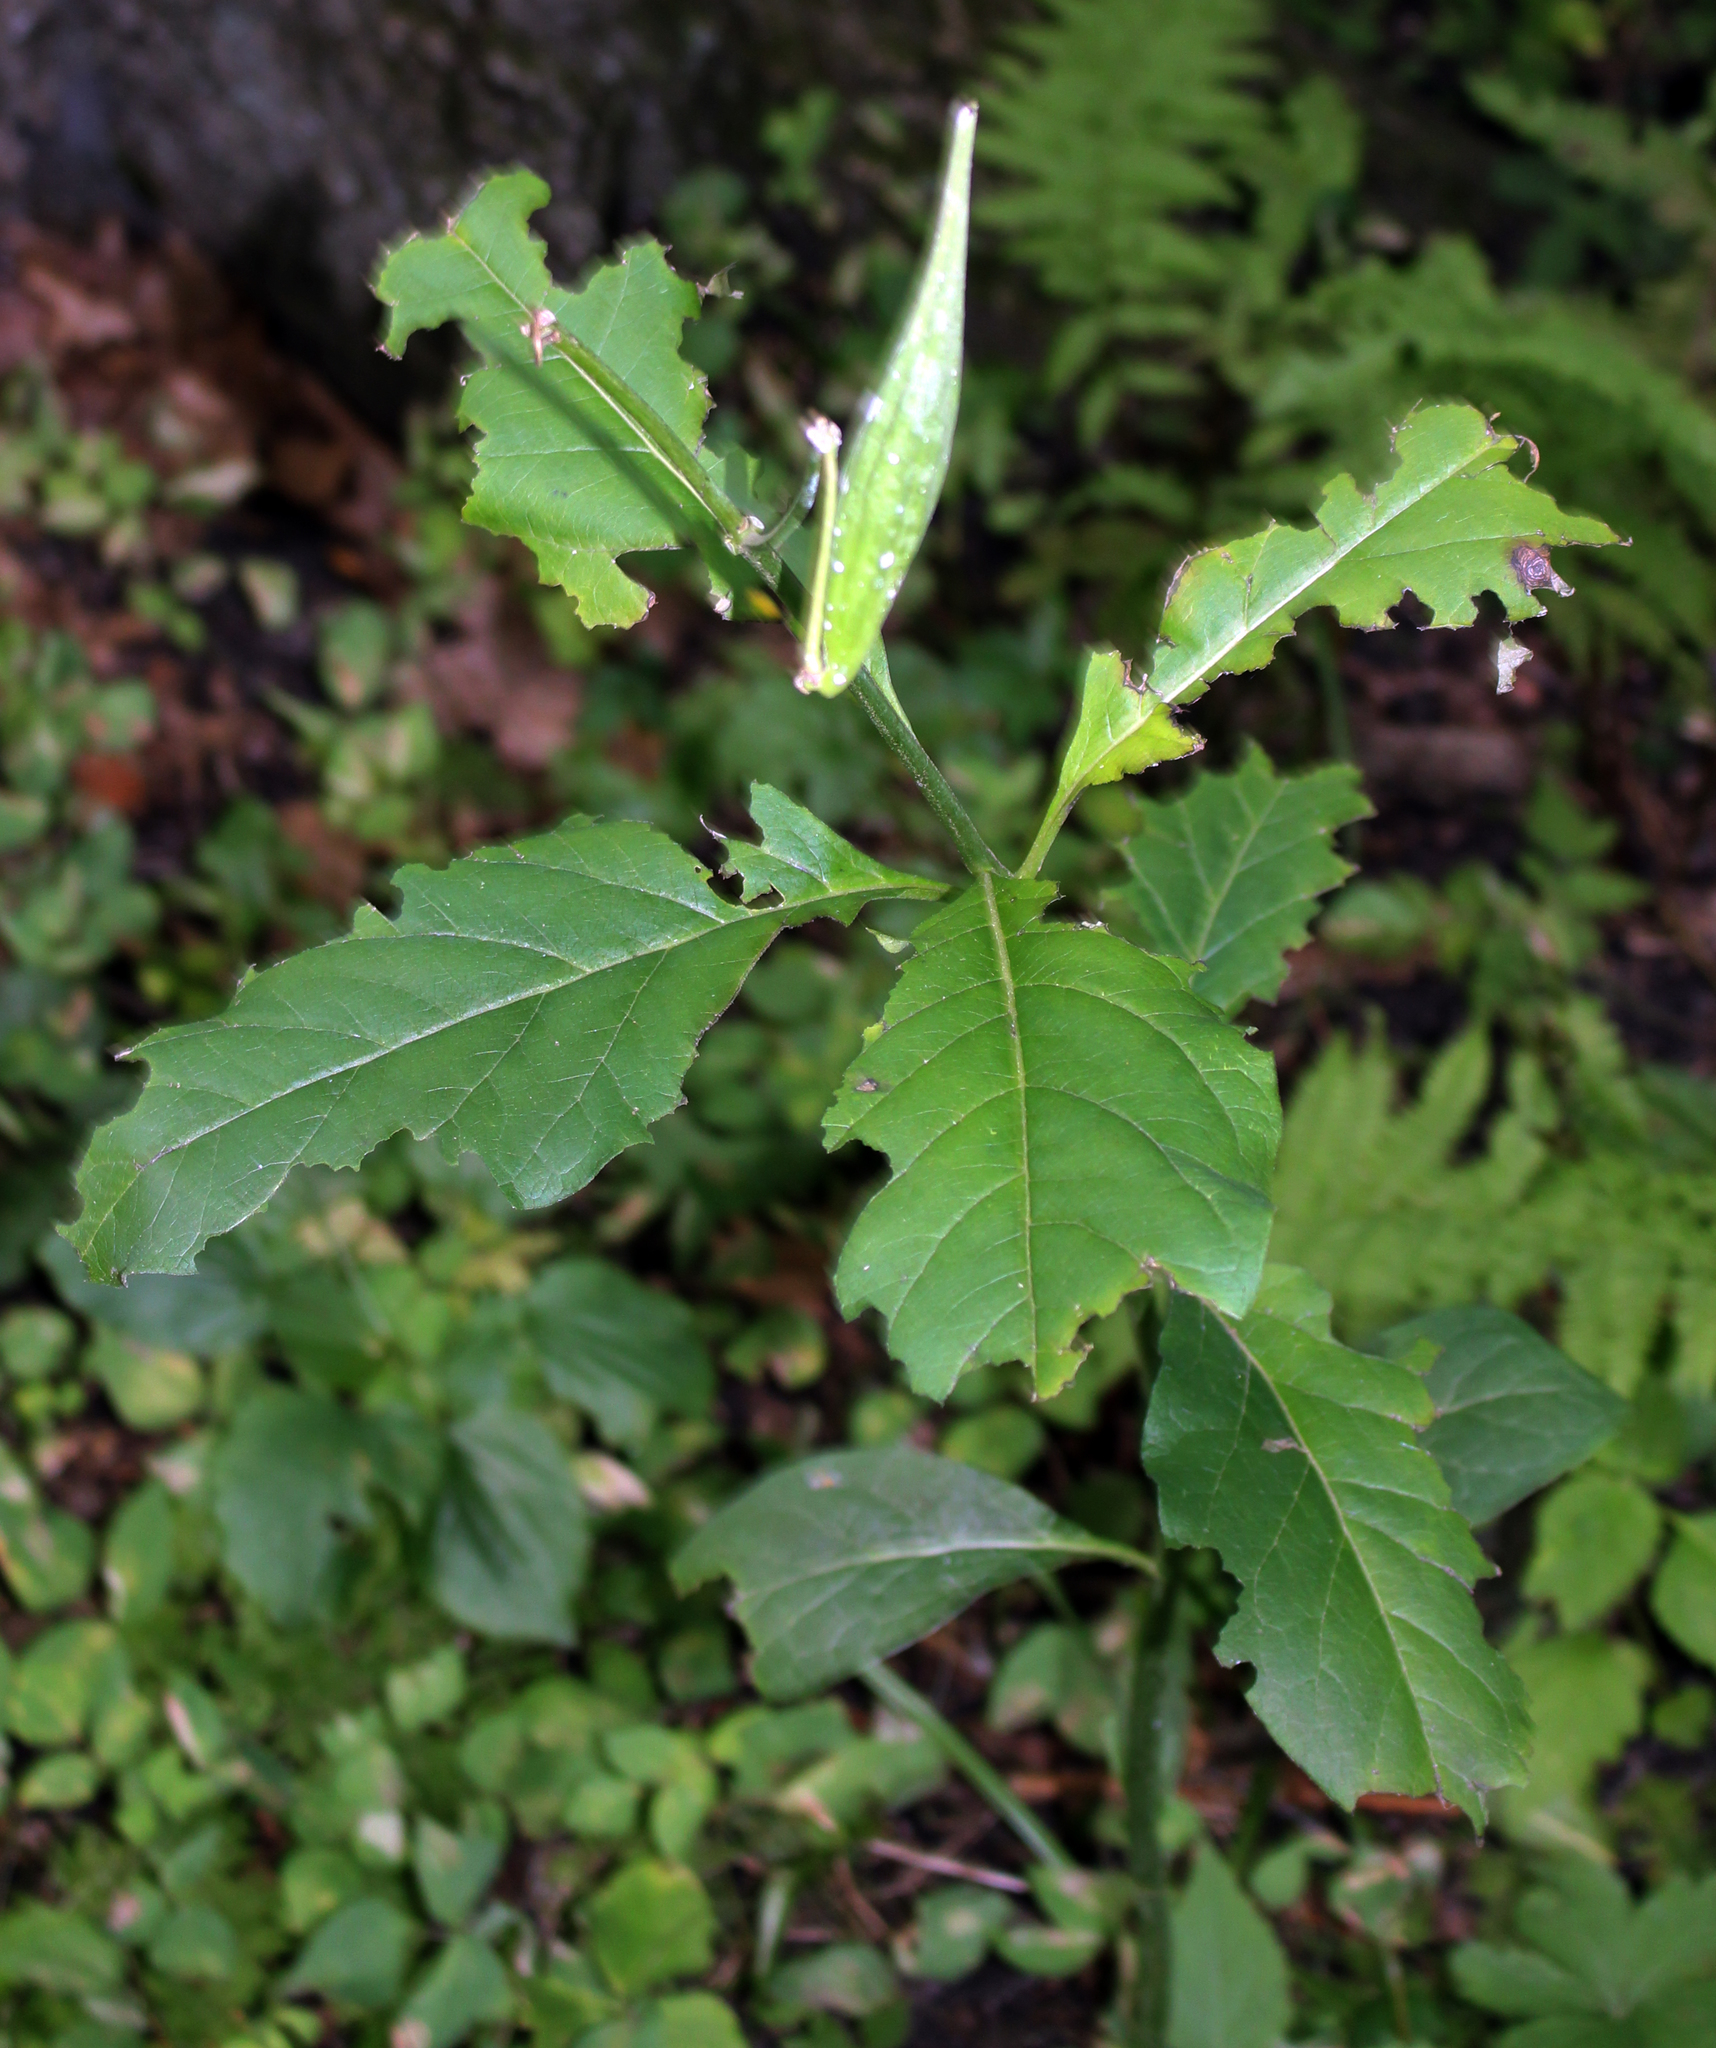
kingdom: Plantae
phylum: Tracheophyta
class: Magnoliopsida
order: Gentianales
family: Apocynaceae
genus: Asclepias
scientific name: Asclepias exaltata
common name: Poke milkweed
